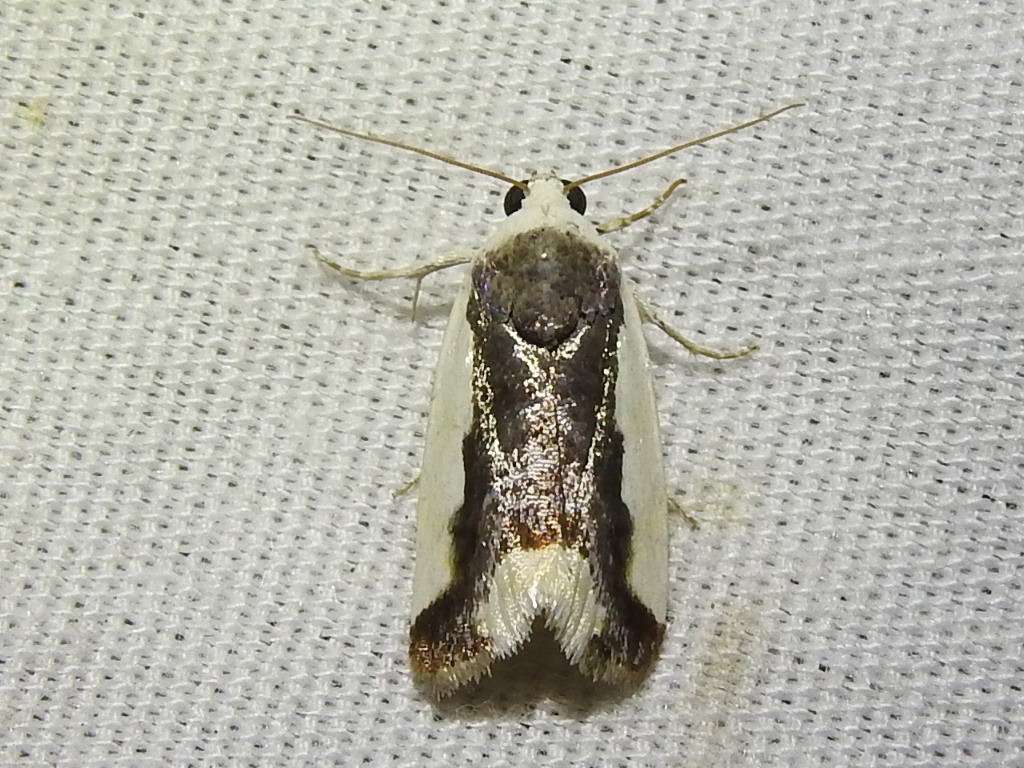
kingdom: Animalia
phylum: Arthropoda
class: Insecta
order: Lepidoptera
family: Noctuidae
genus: Acontia
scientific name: Acontia Tarache expolita
